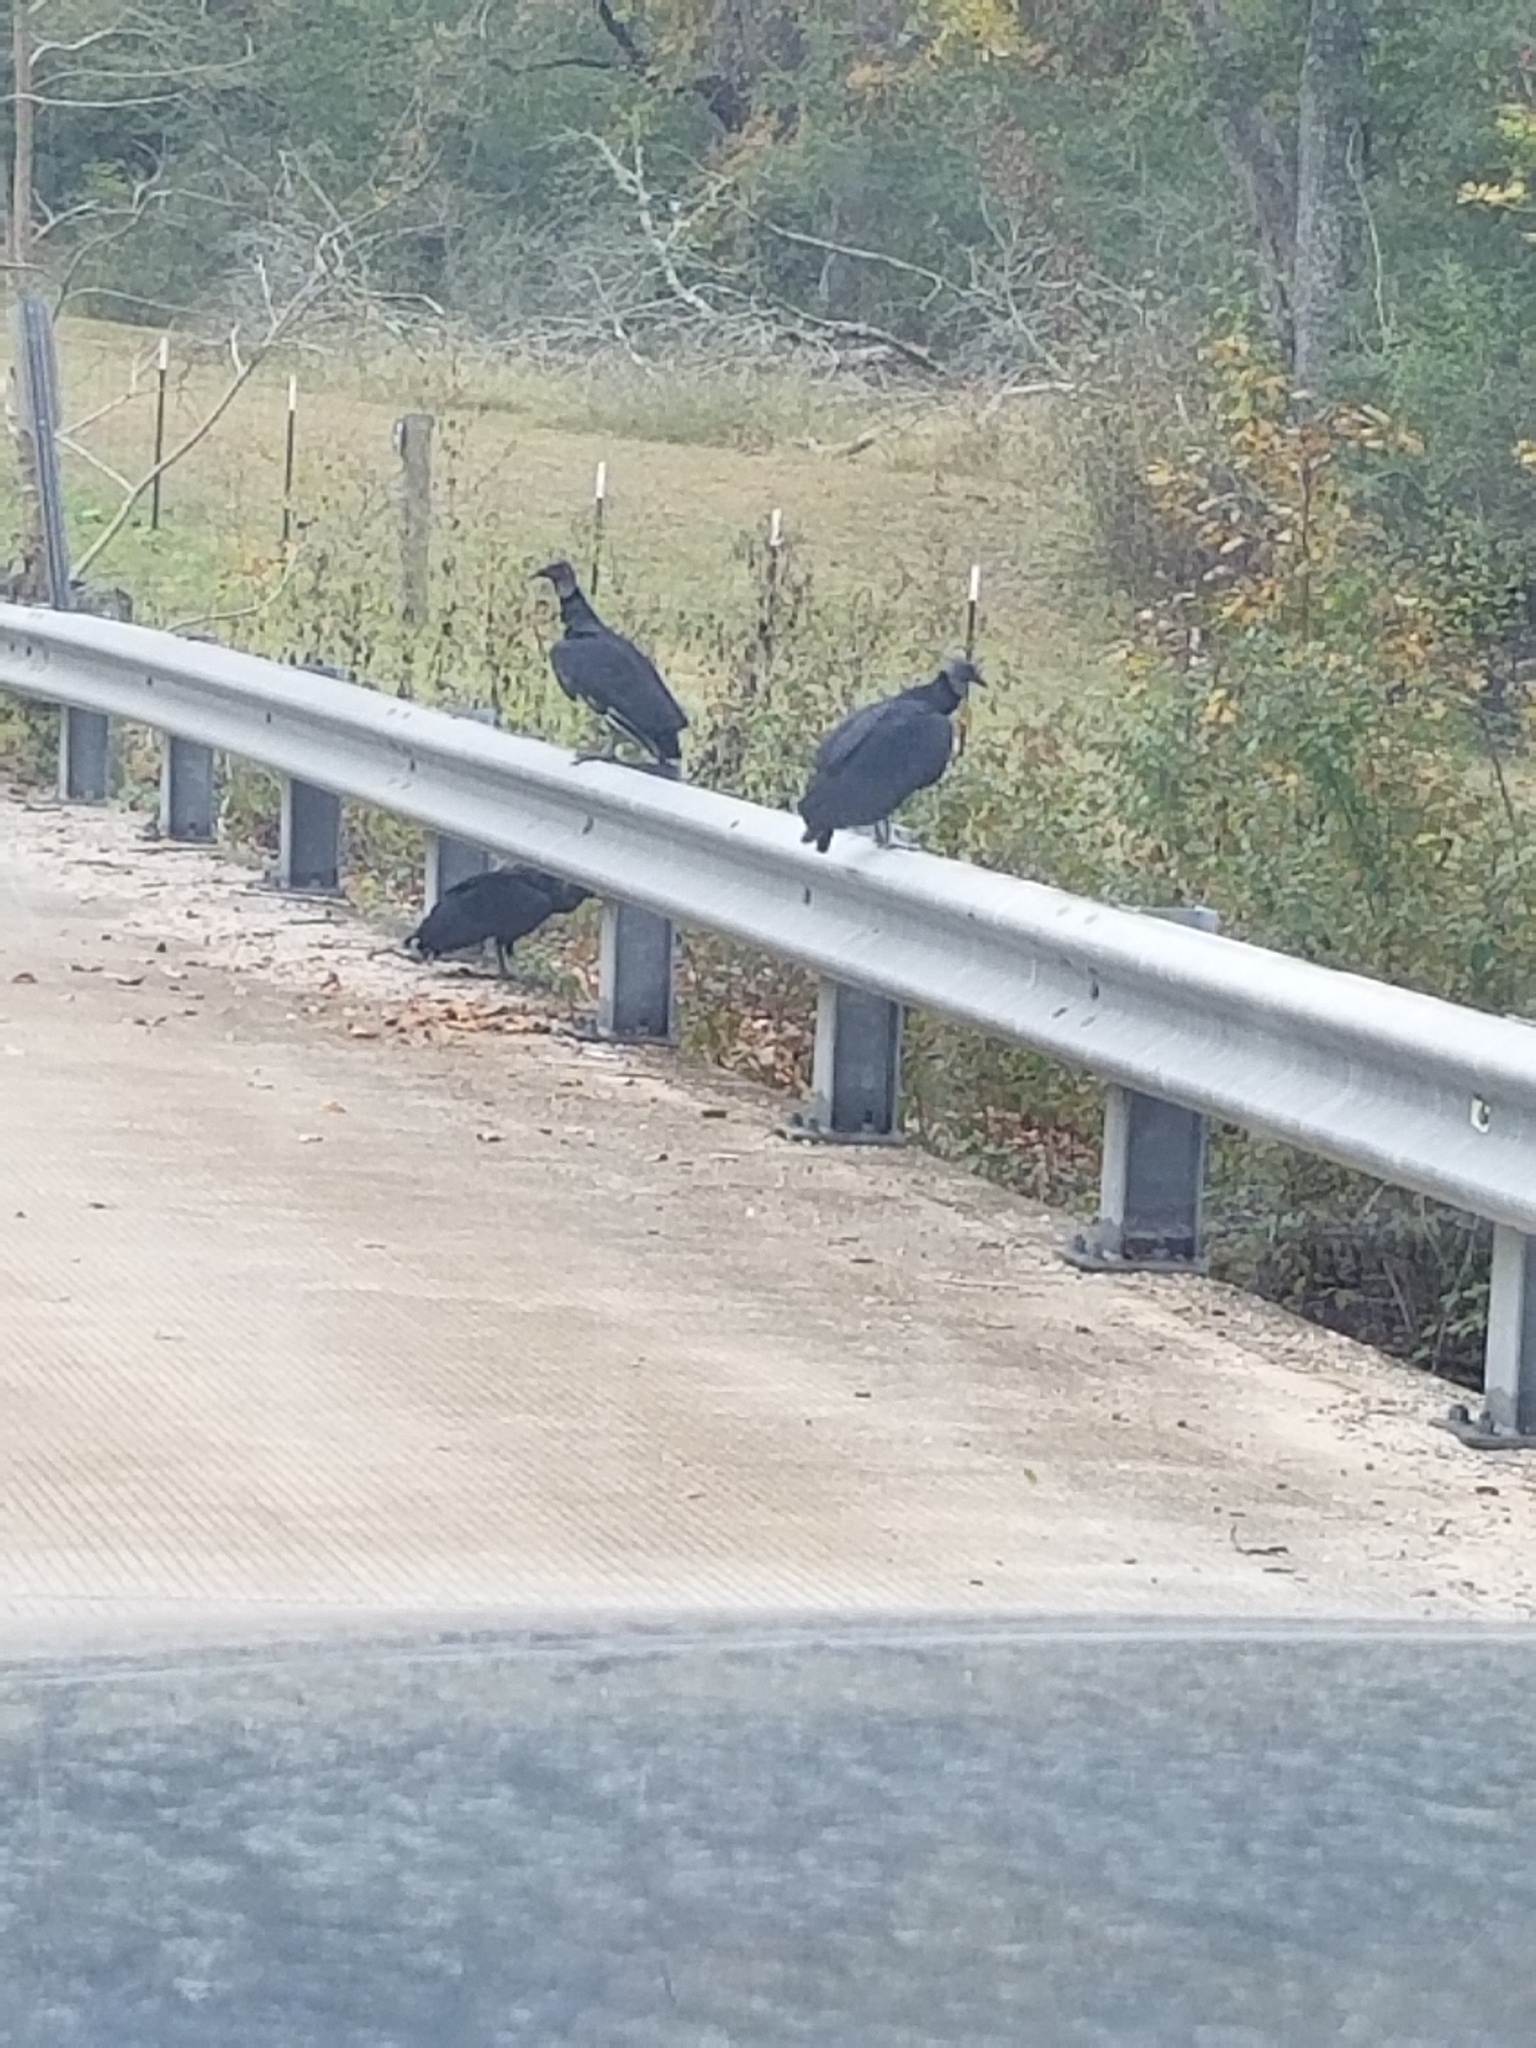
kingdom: Animalia
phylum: Chordata
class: Aves
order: Accipitriformes
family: Cathartidae
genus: Coragyps
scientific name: Coragyps atratus
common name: Black vulture
